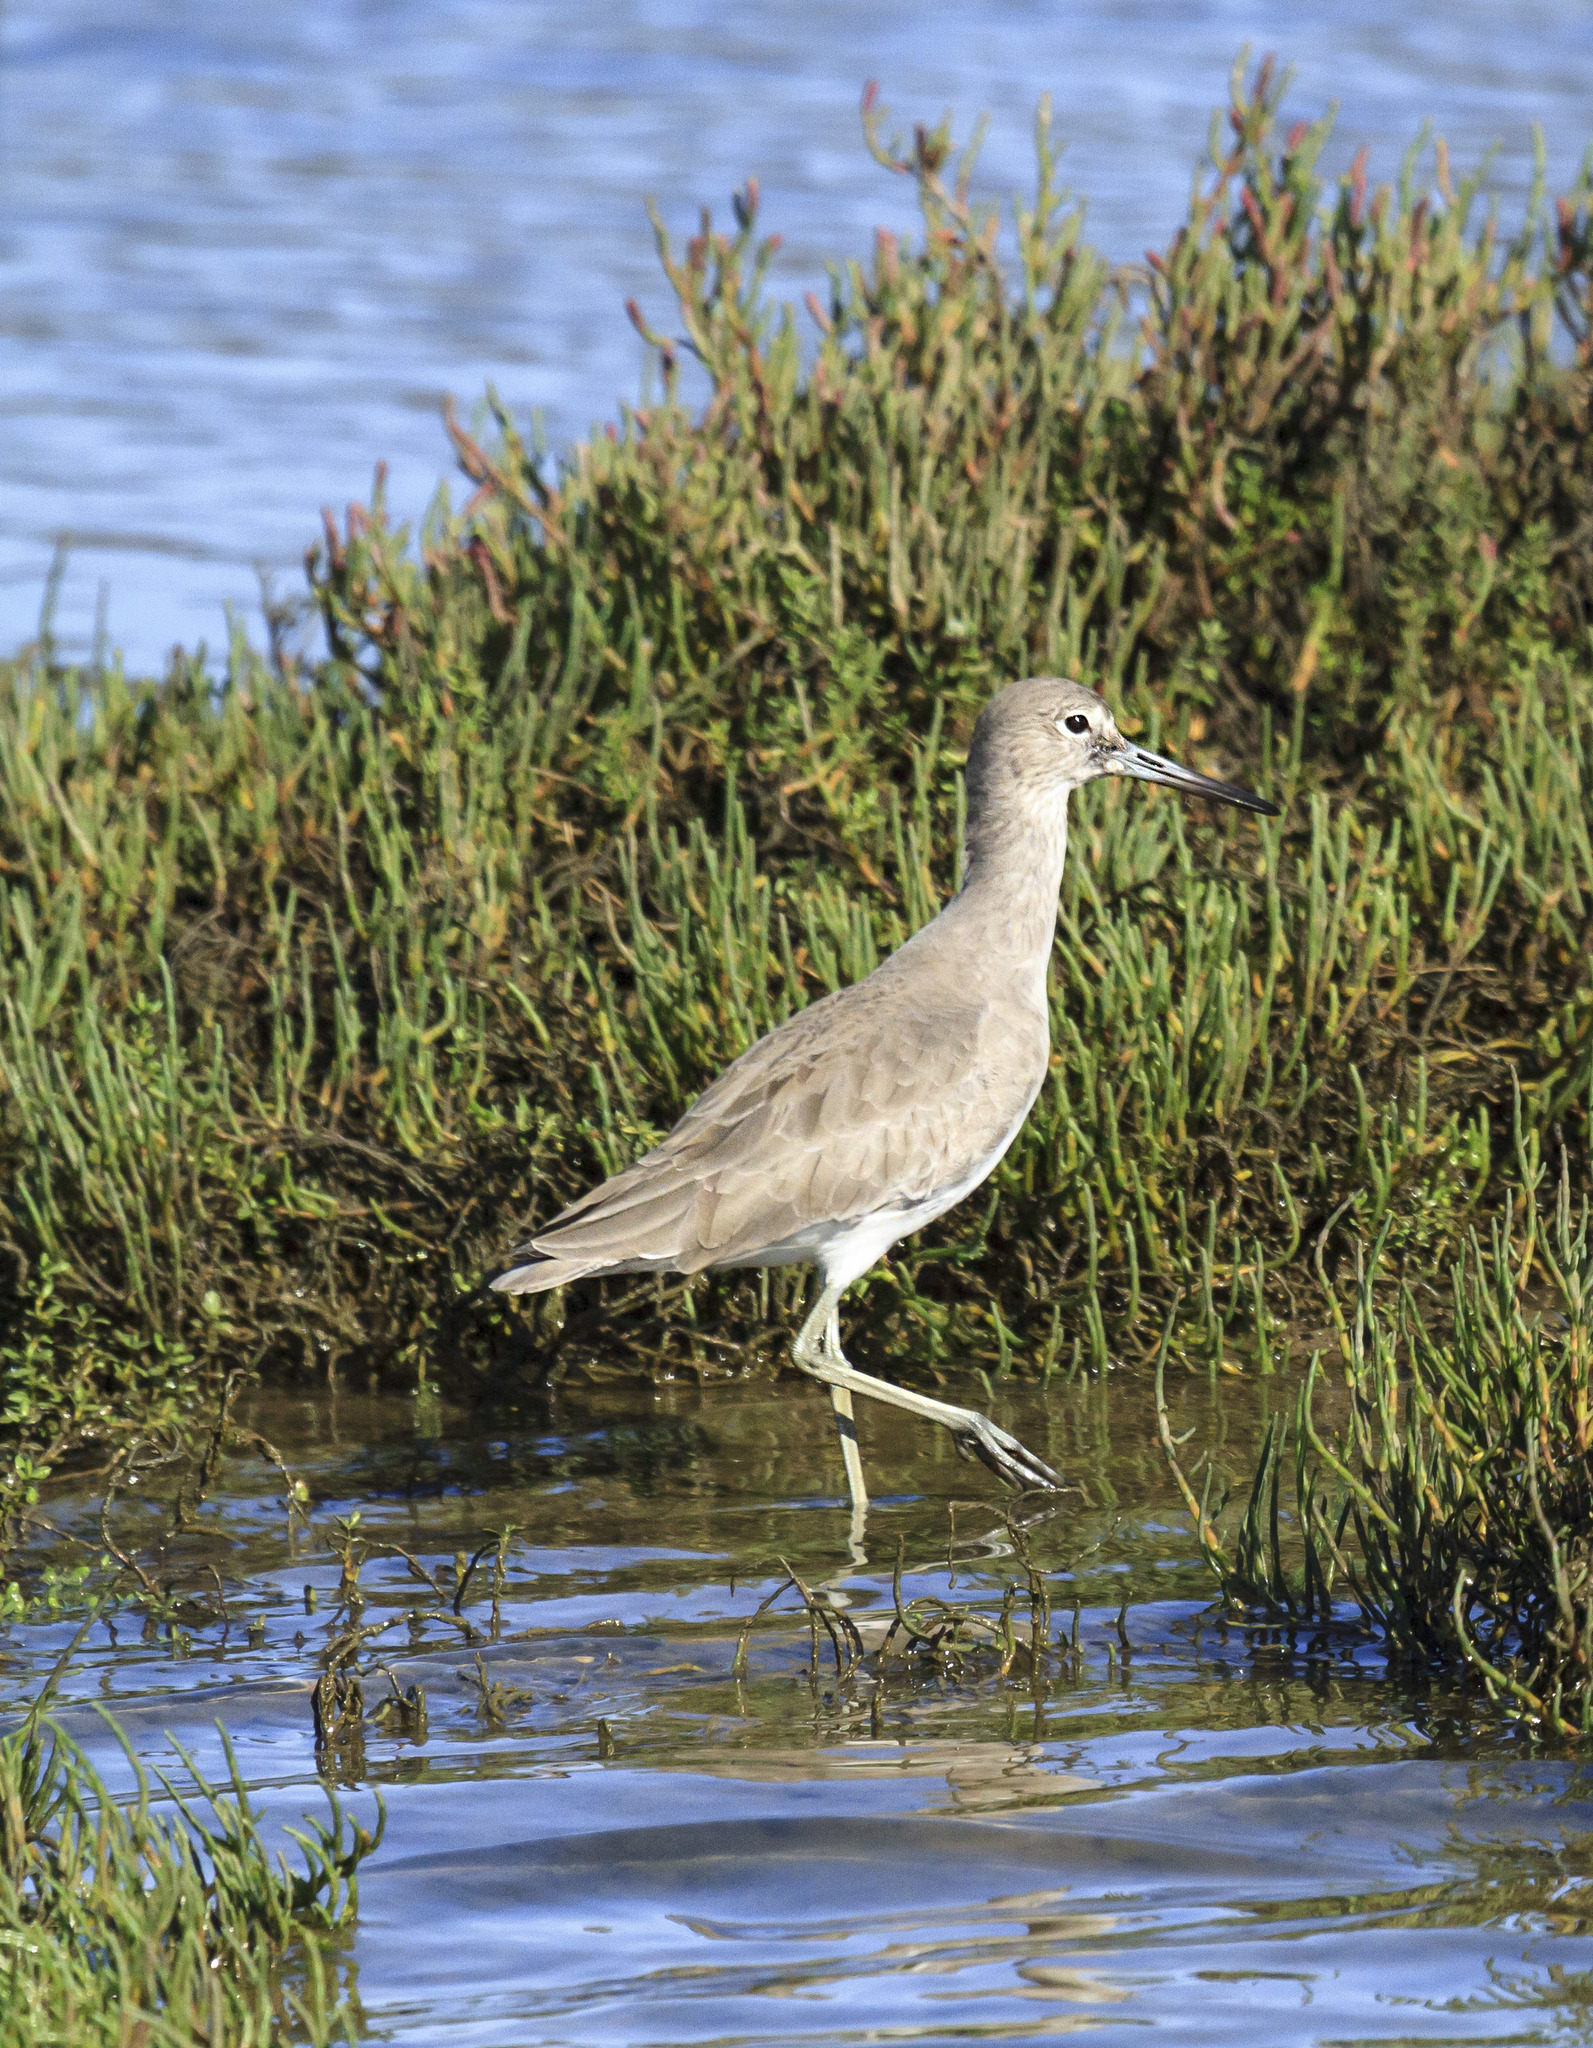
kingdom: Animalia
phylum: Chordata
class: Aves
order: Charadriiformes
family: Scolopacidae
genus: Tringa
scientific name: Tringa semipalmata
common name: Willet
